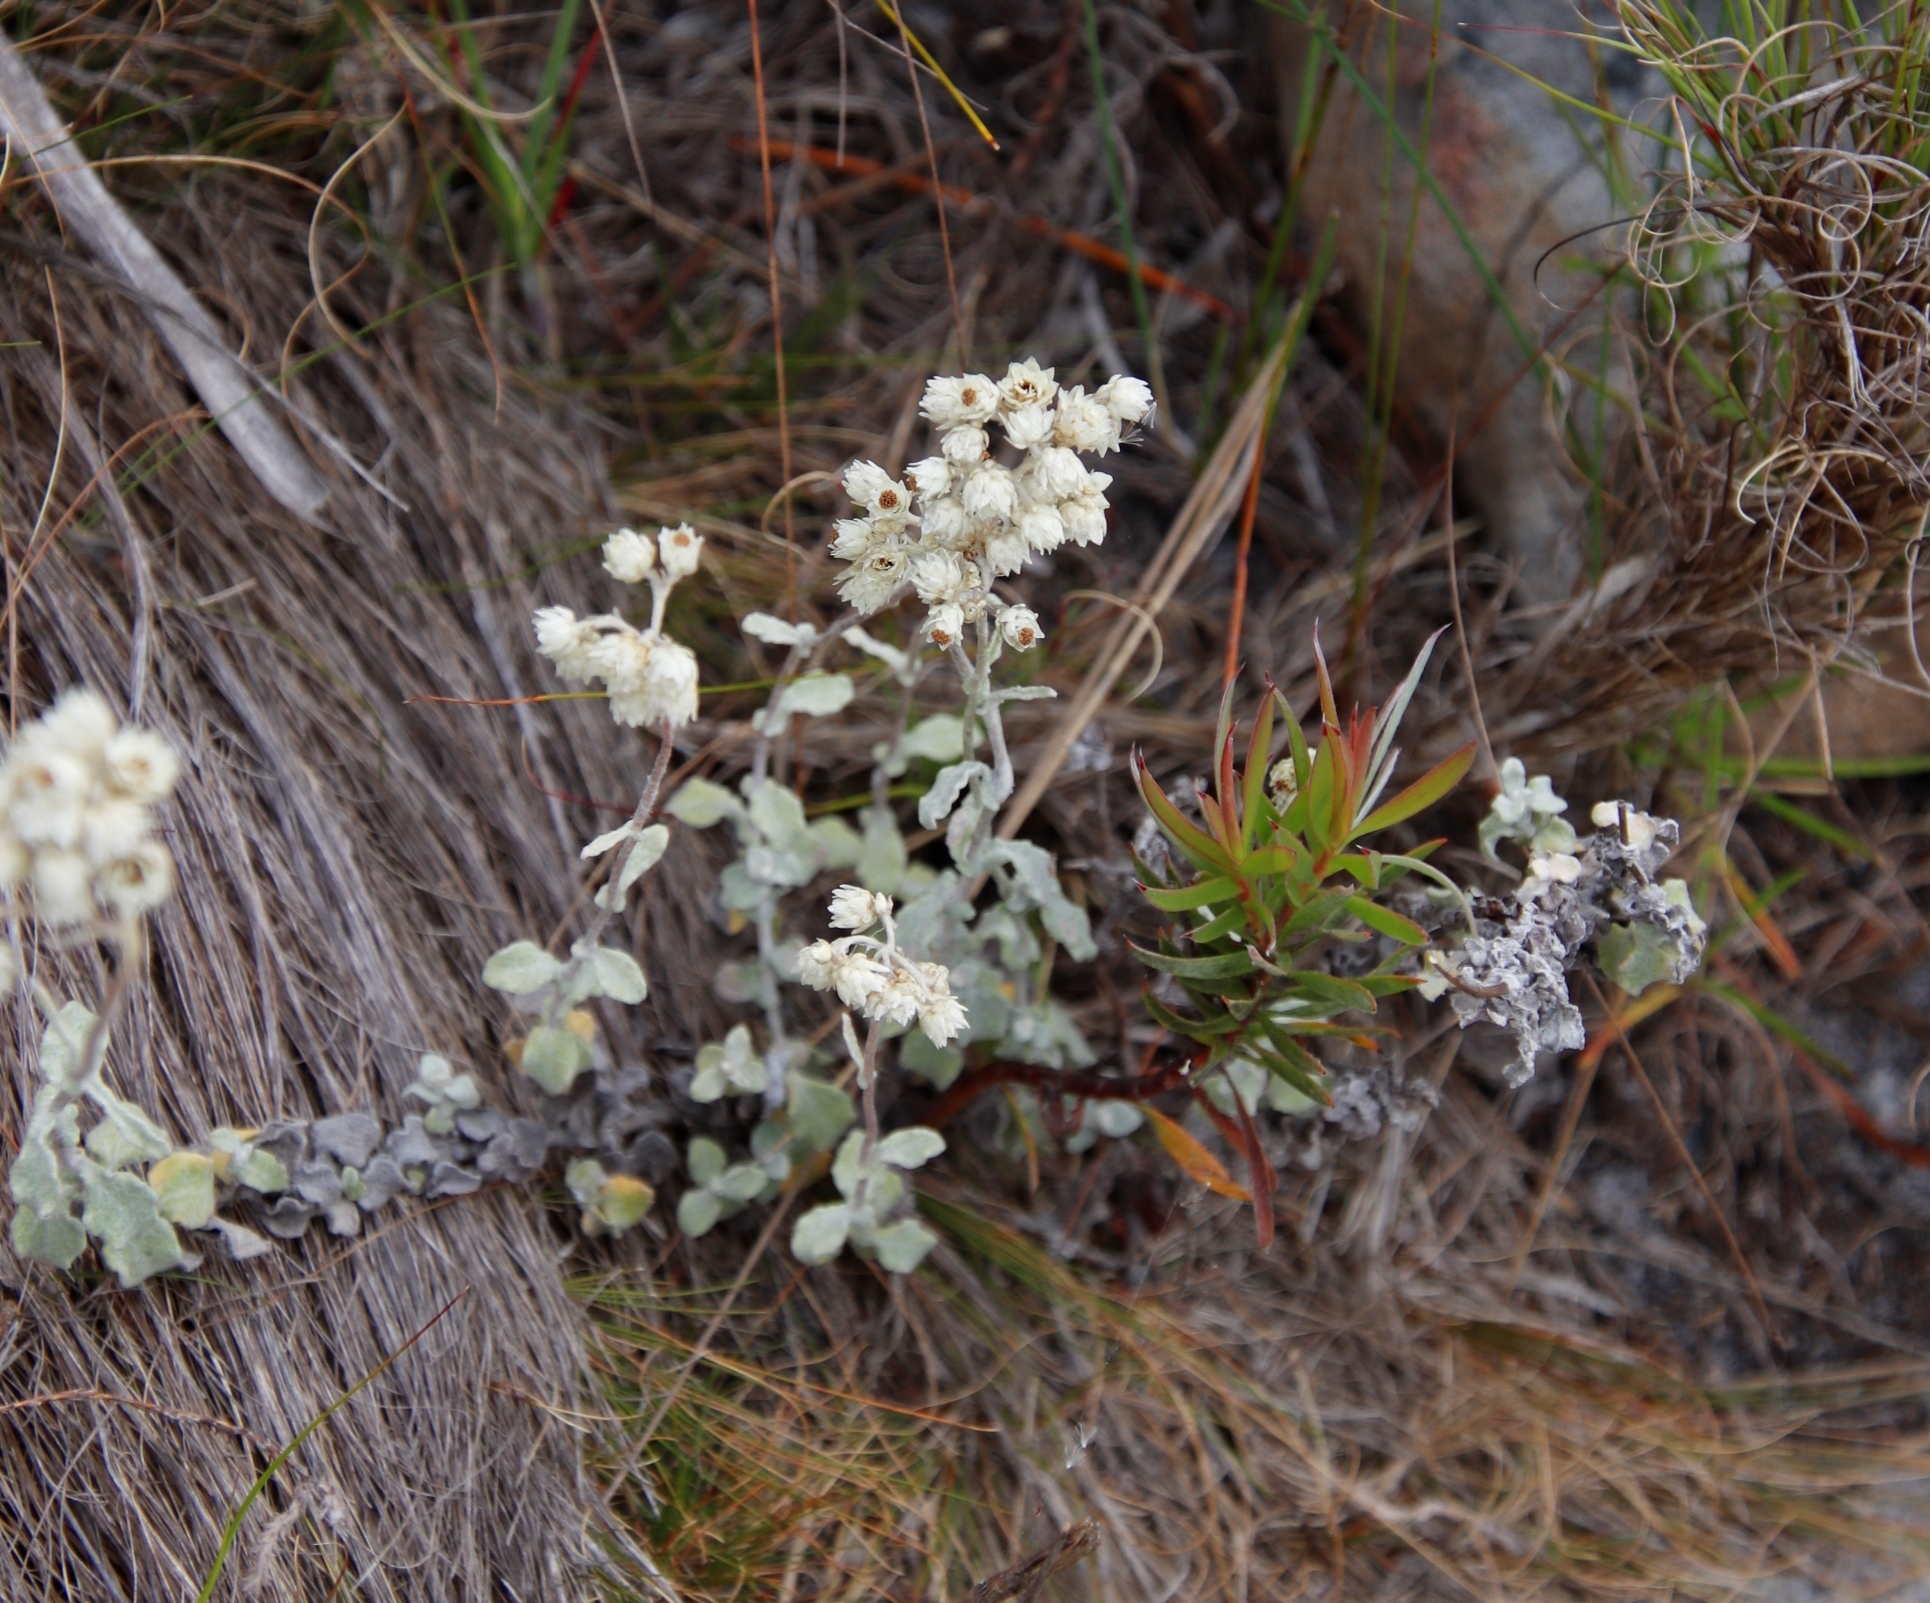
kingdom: Plantae
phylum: Tracheophyta
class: Magnoliopsida
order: Asterales
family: Asteraceae
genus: Helichrysum
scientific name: Helichrysum pandurifolium
